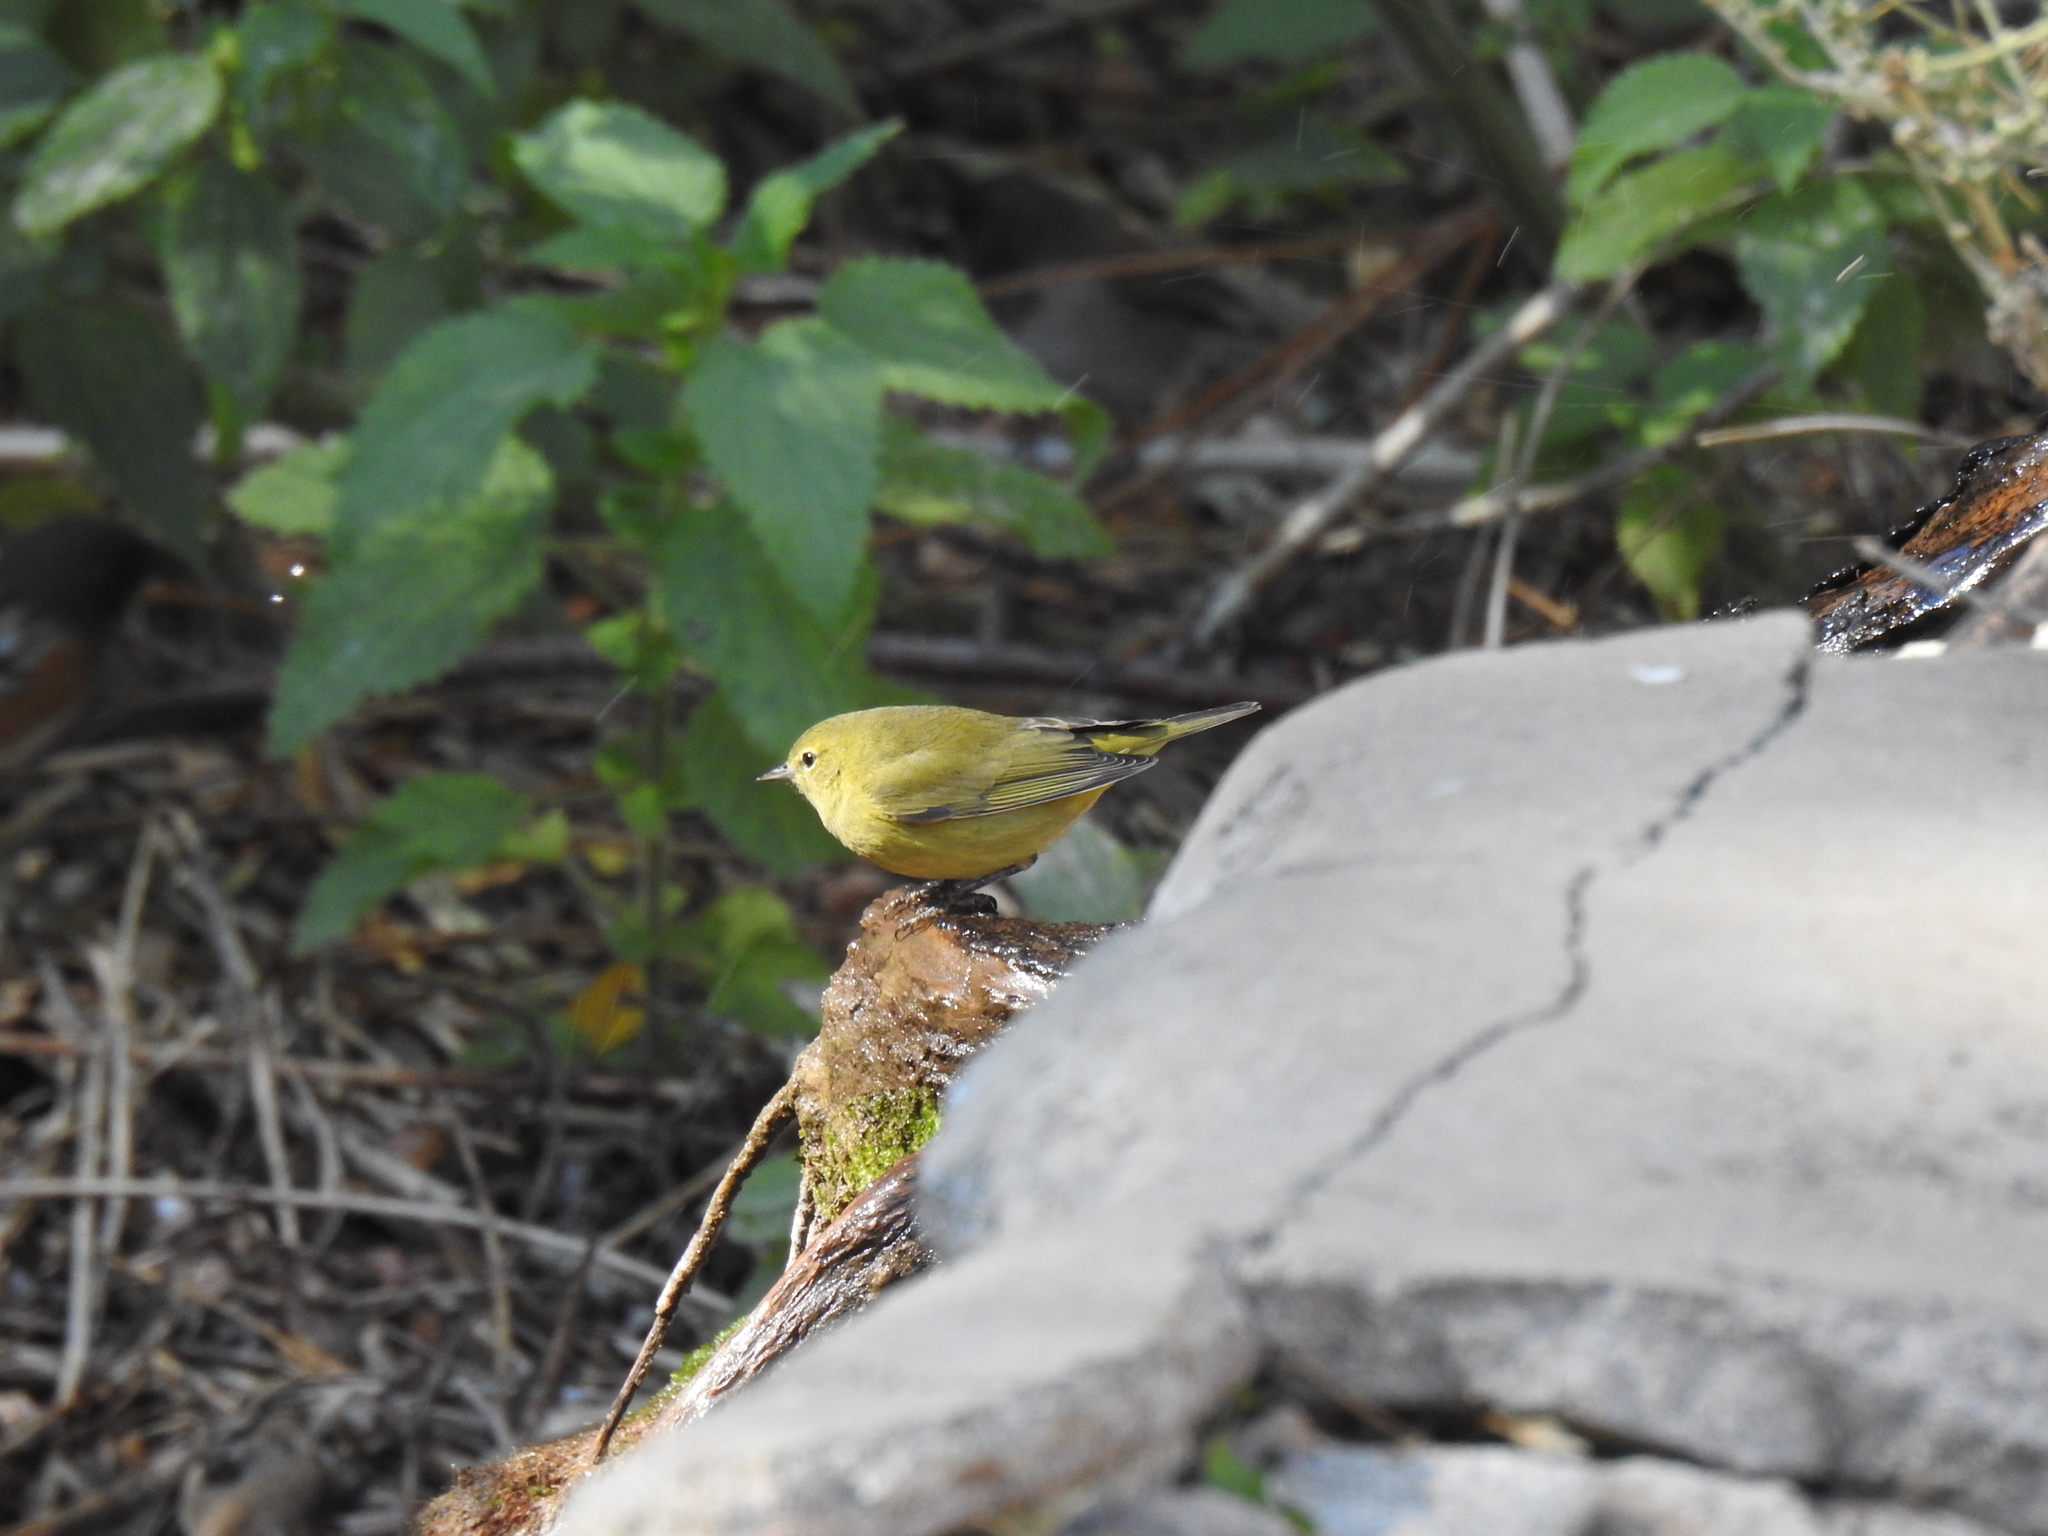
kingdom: Animalia
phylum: Chordata
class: Aves
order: Passeriformes
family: Parulidae
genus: Leiothlypis
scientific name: Leiothlypis celata
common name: Orange-crowned warbler
